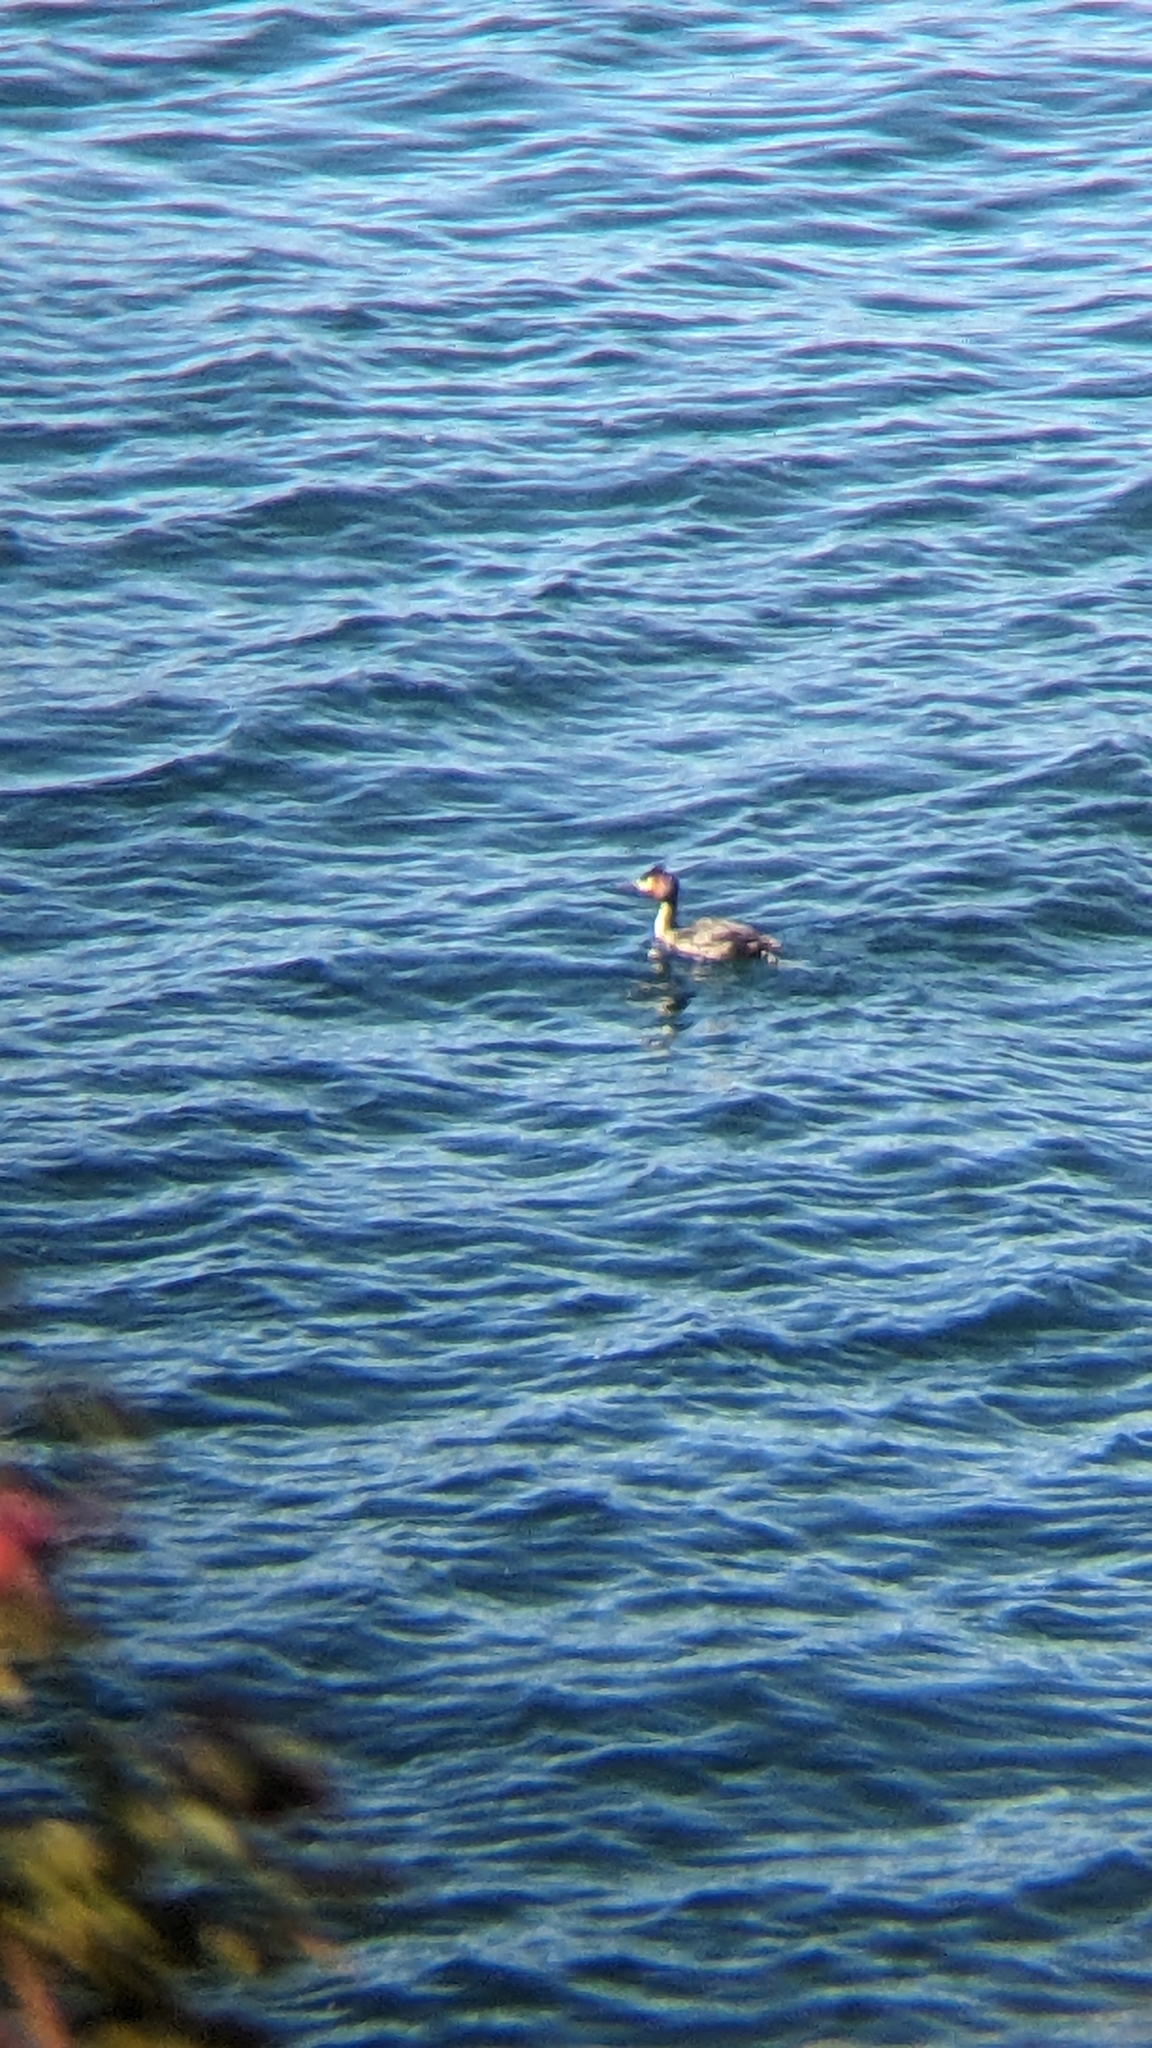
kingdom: Animalia
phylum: Chordata
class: Aves
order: Podicipediformes
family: Podicipedidae
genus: Podiceps
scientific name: Podiceps cristatus
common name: Great crested grebe
